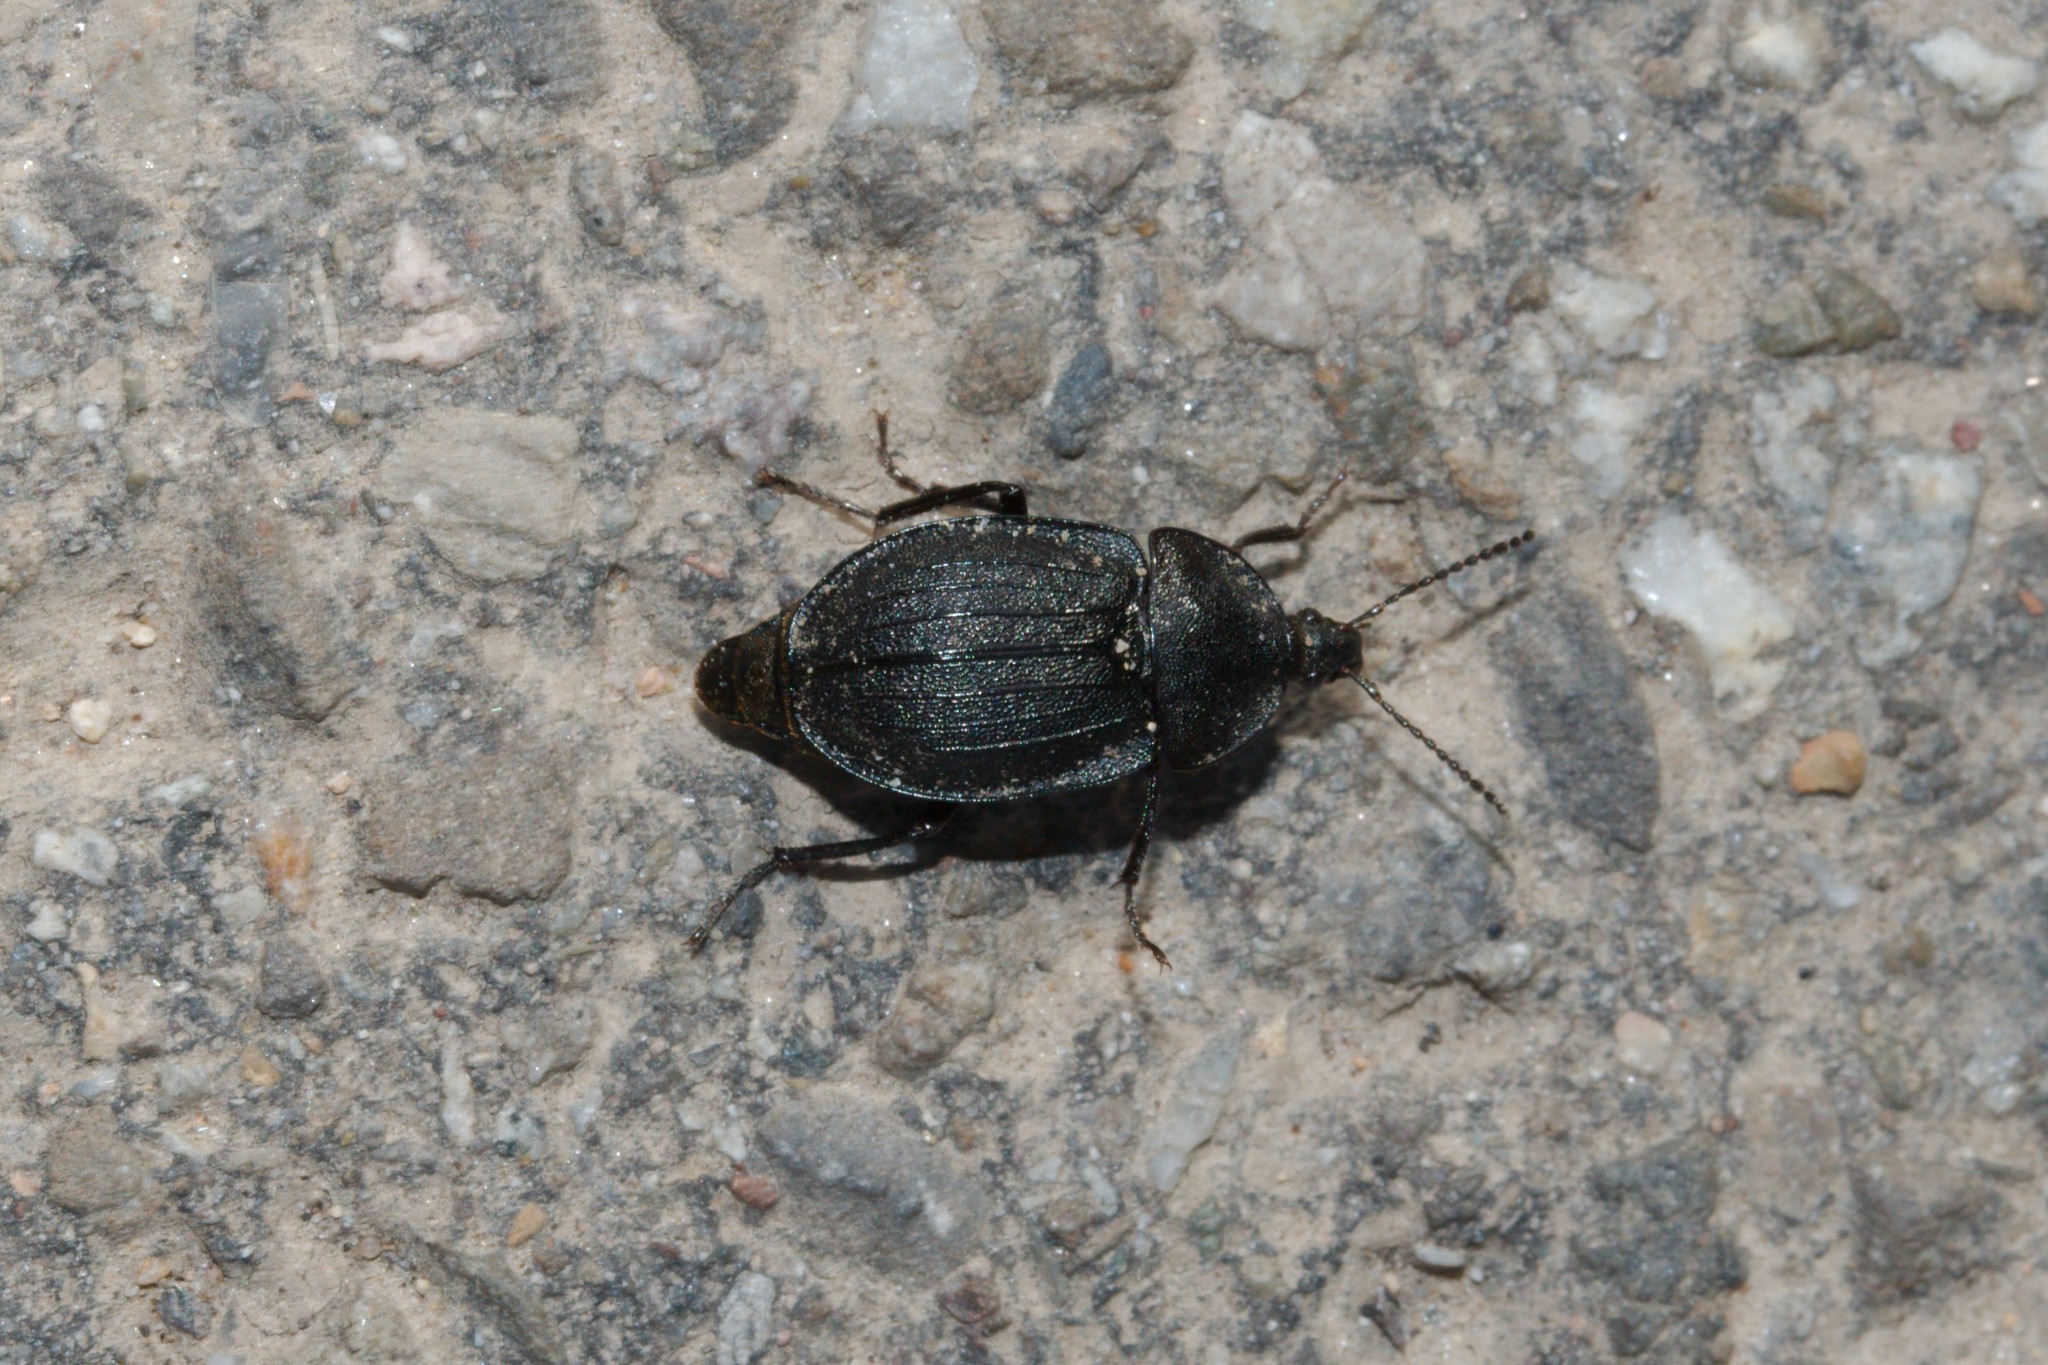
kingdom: Animalia
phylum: Arthropoda
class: Insecta
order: Coleoptera
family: Staphylinidae
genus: Silpha
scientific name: Silpha atrata
